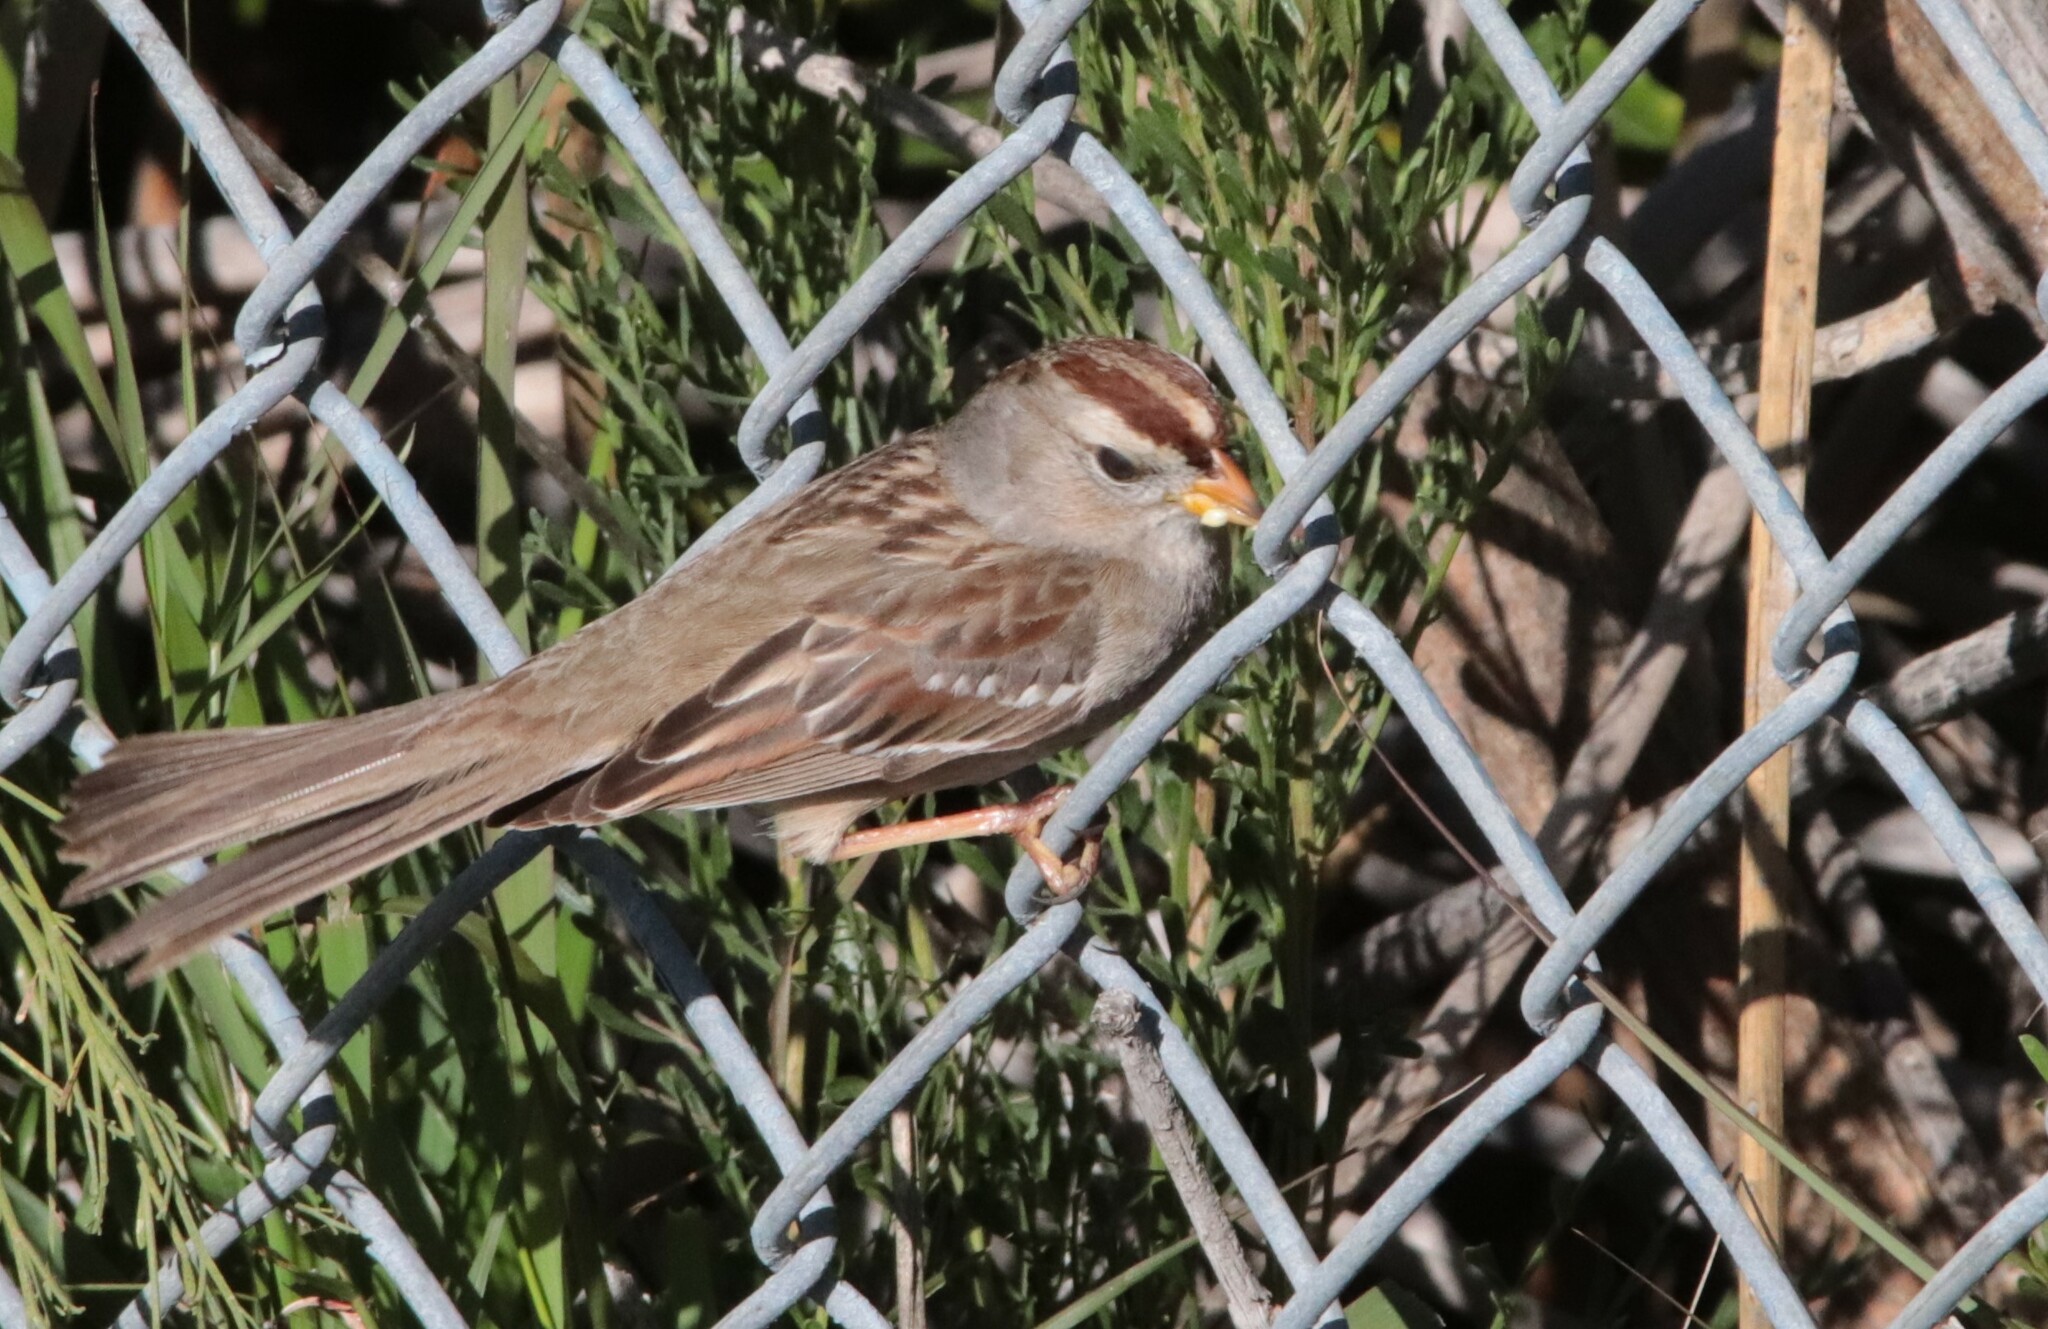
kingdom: Animalia
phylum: Chordata
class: Aves
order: Passeriformes
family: Passerellidae
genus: Zonotrichia
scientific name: Zonotrichia leucophrys
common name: White-crowned sparrow
